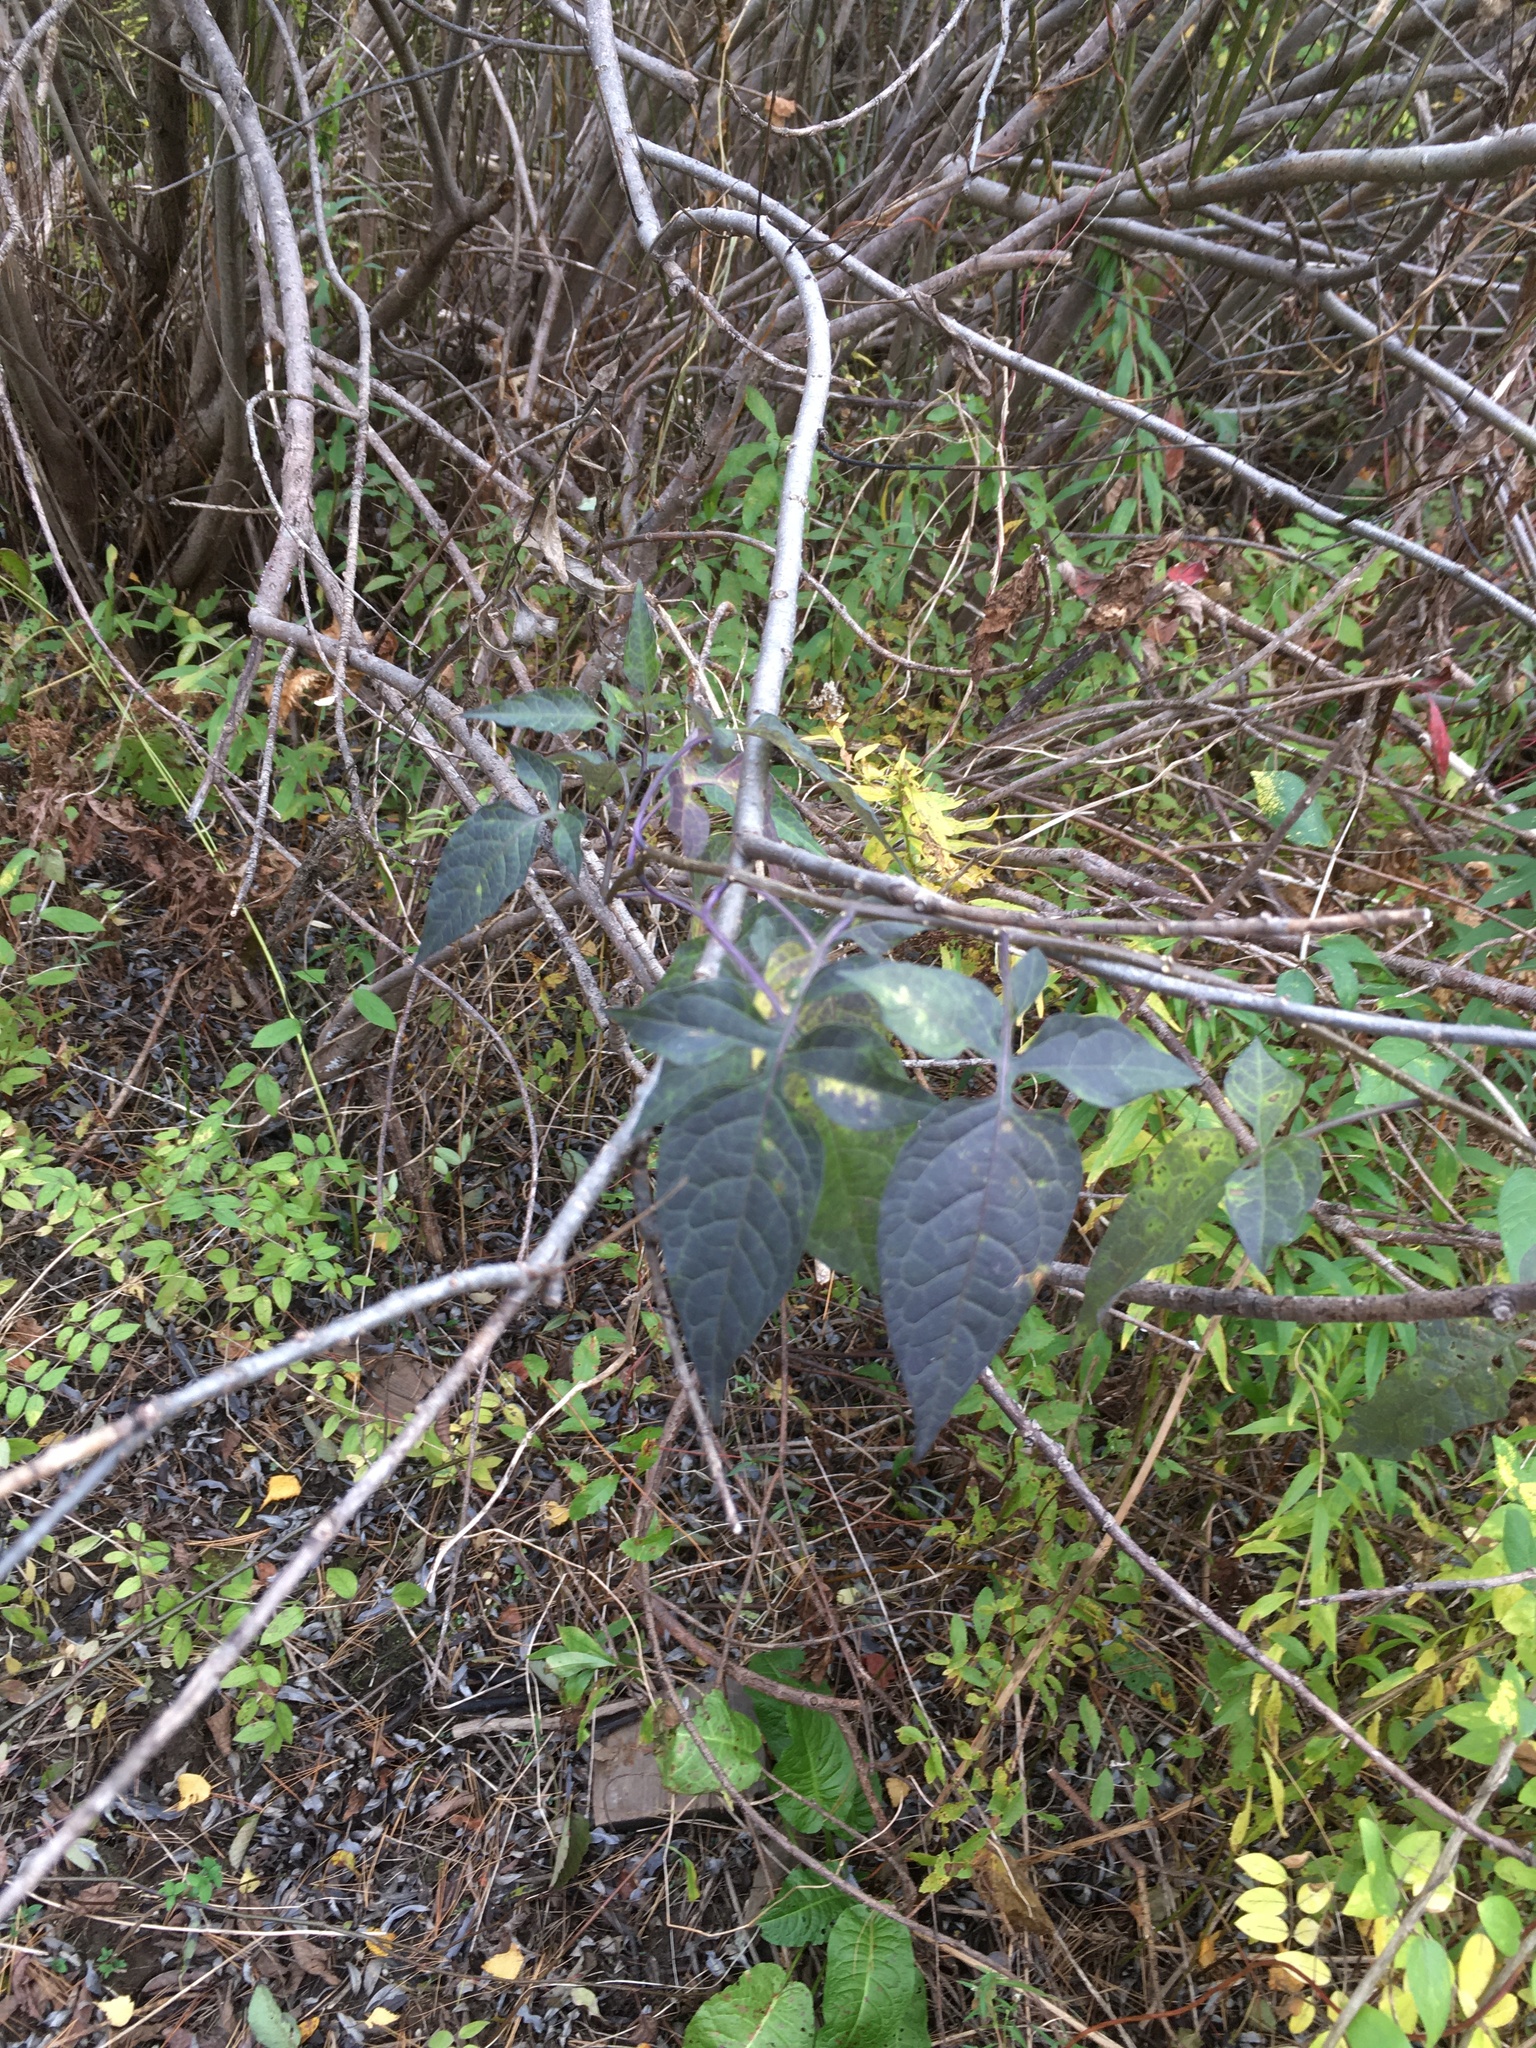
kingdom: Plantae
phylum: Tracheophyta
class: Magnoliopsida
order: Solanales
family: Solanaceae
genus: Solanum
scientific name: Solanum dulcamara
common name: Climbing nightshade
